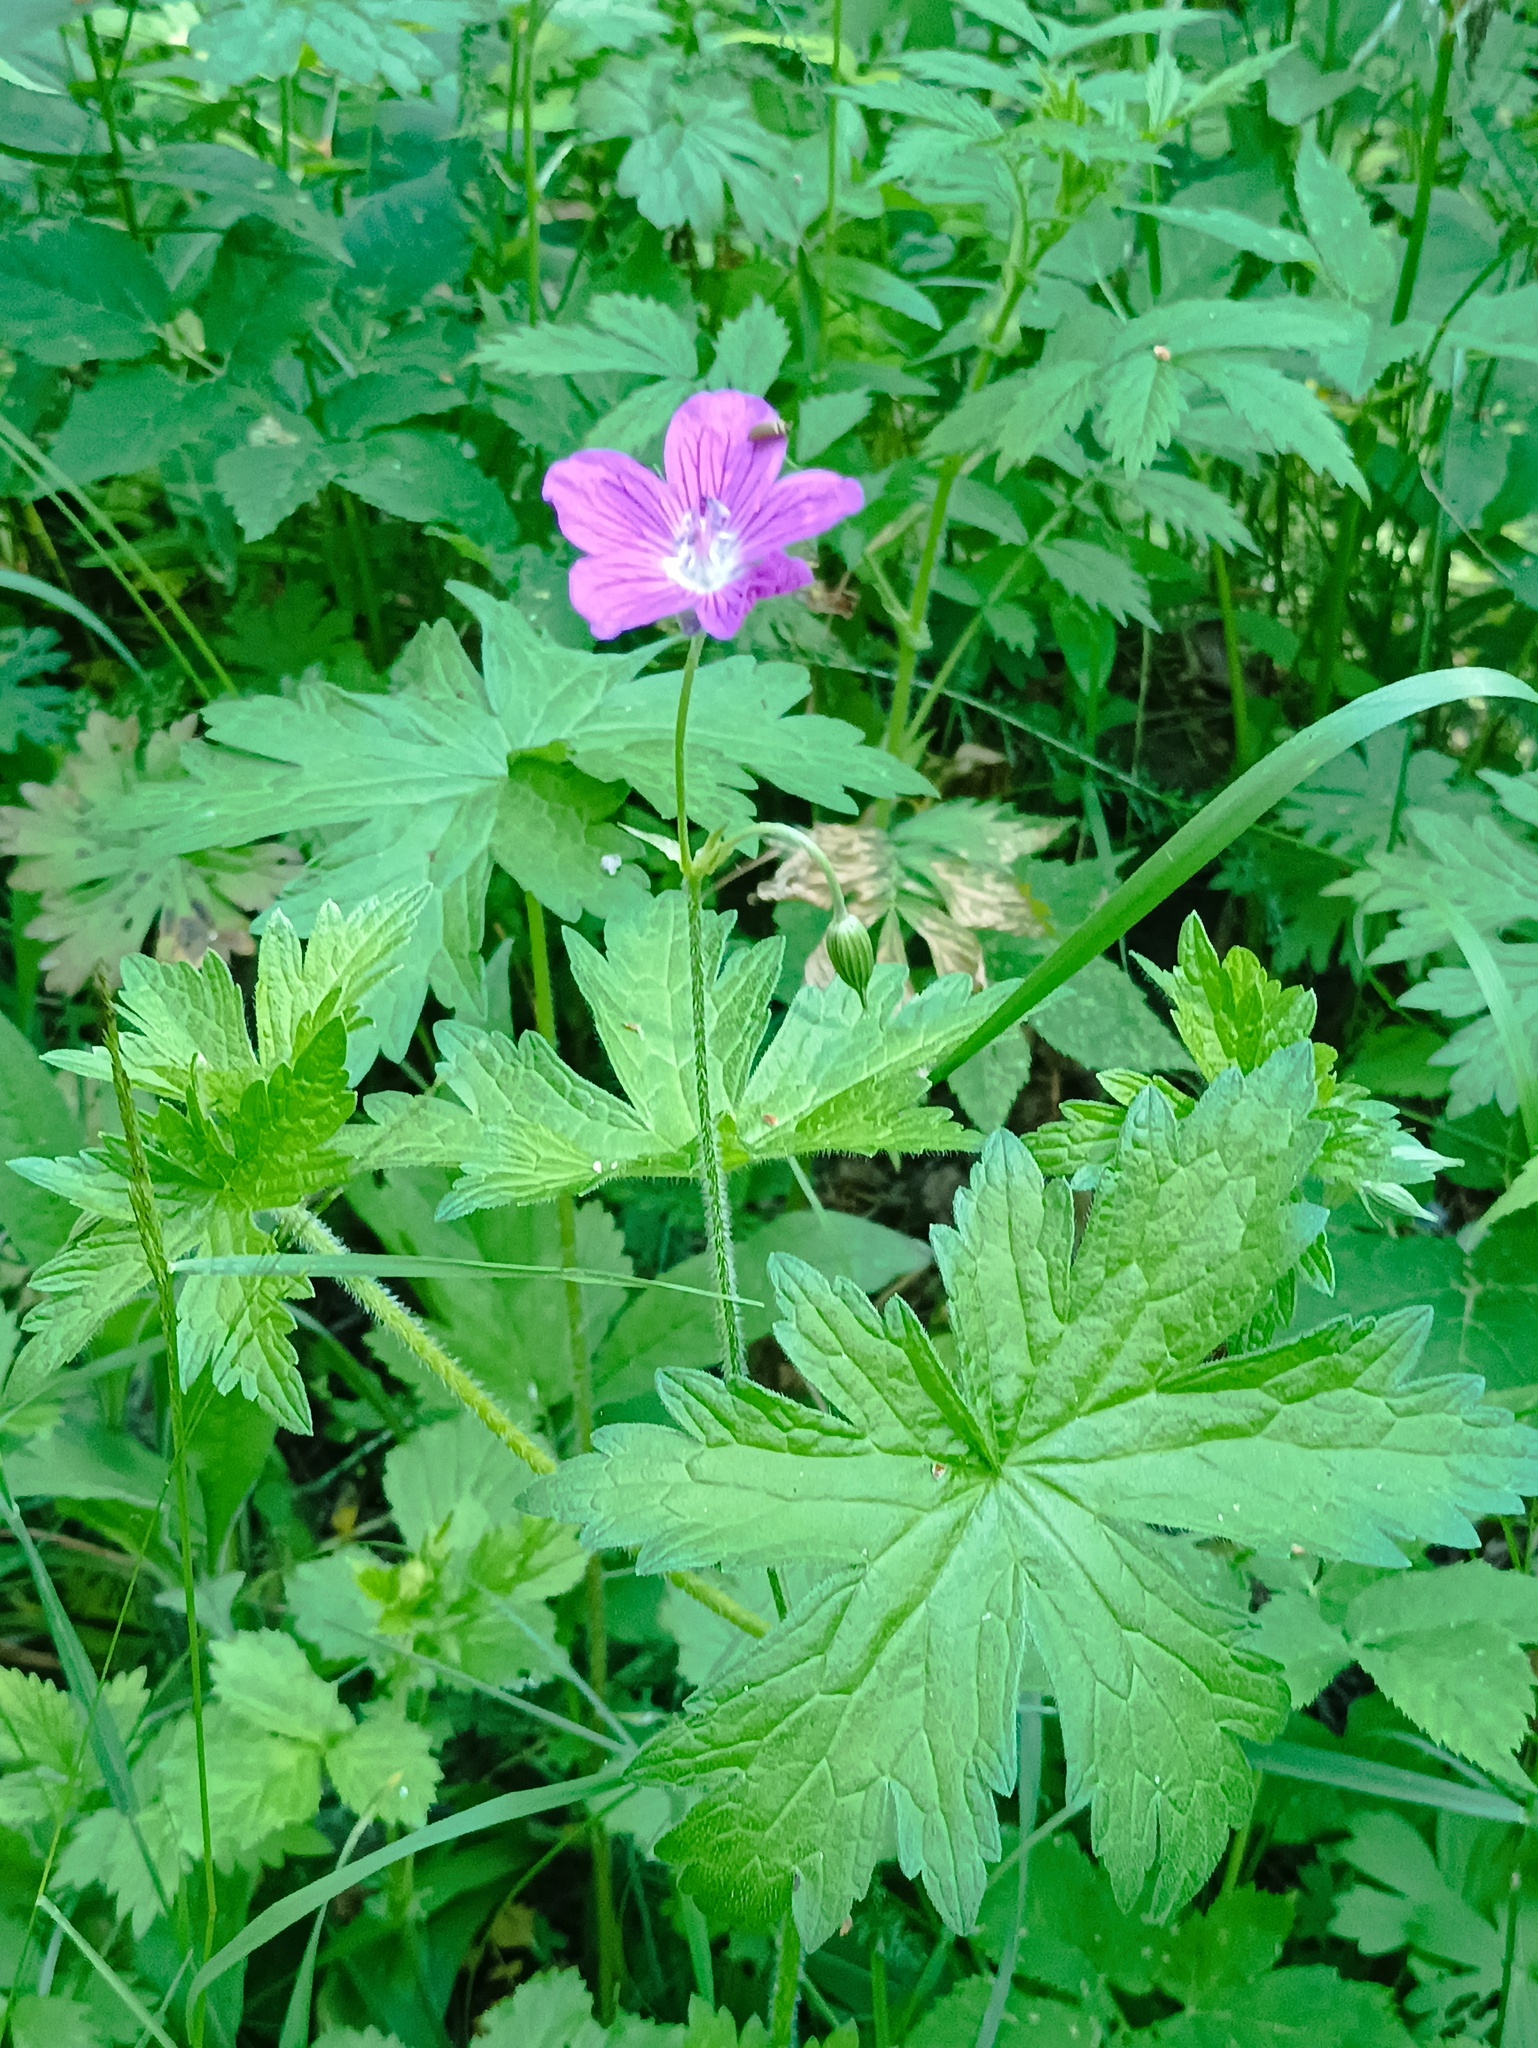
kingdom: Plantae
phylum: Tracheophyta
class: Magnoliopsida
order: Geraniales
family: Geraniaceae
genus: Geranium
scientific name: Geranium palustre
